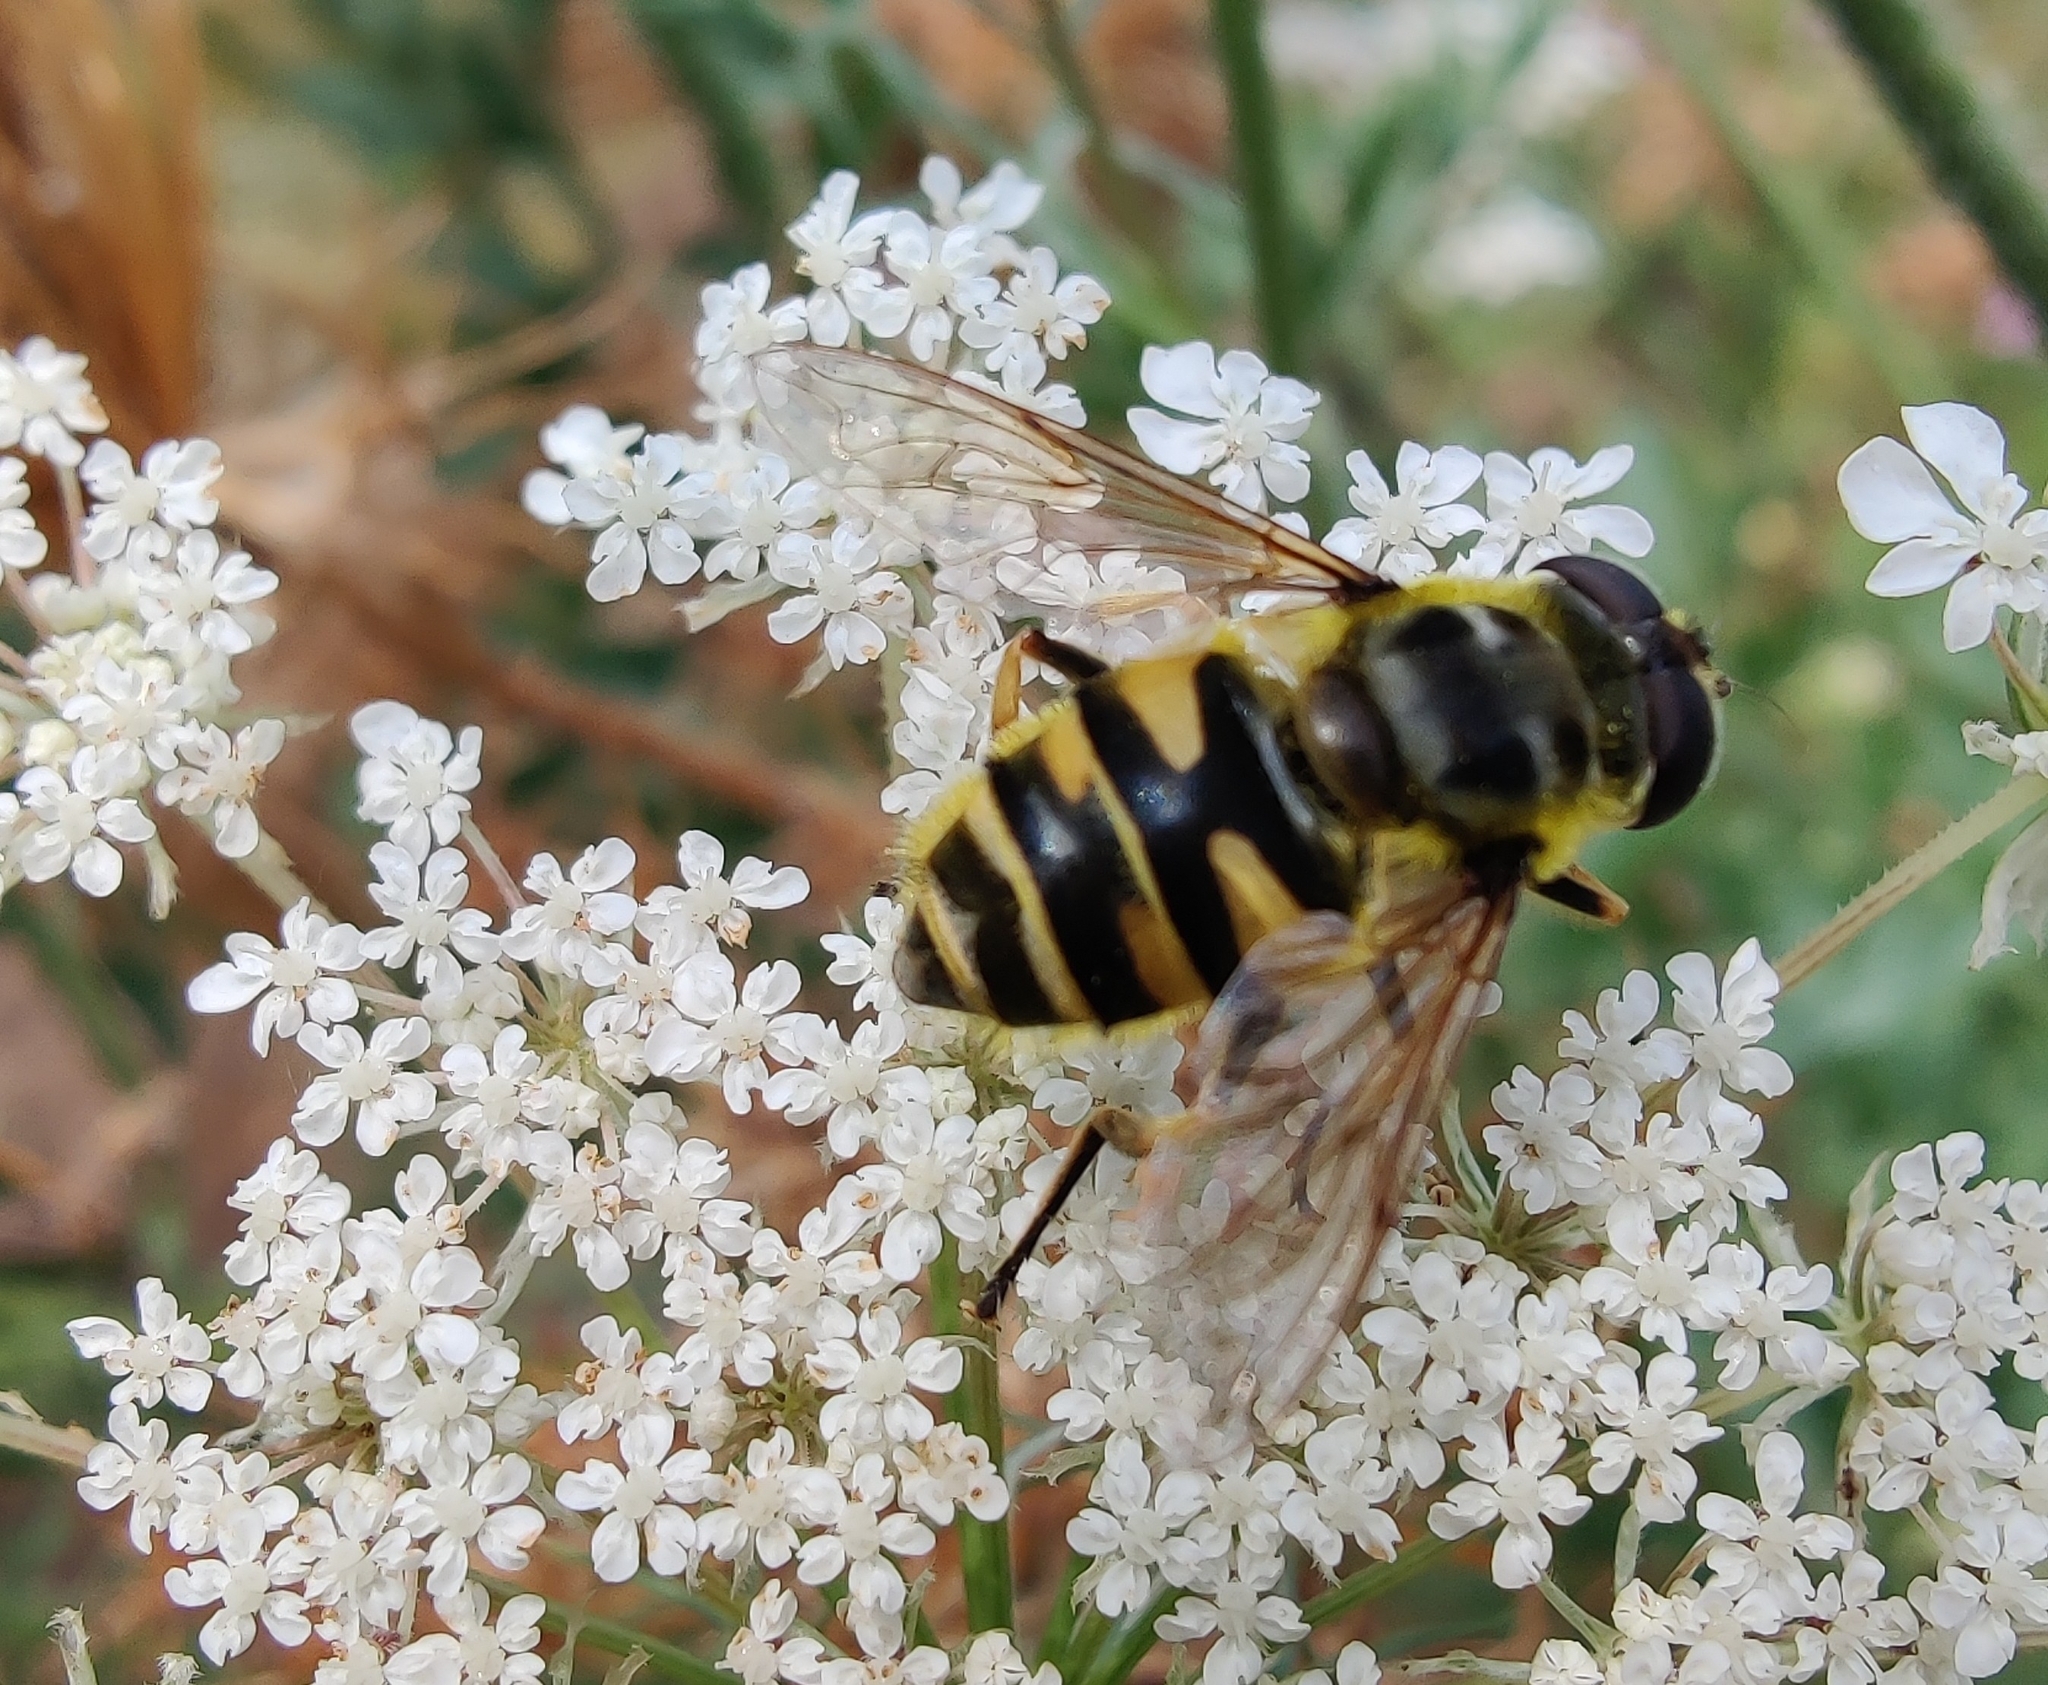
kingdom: Animalia
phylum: Arthropoda
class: Insecta
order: Diptera
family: Syrphidae
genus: Myathropa
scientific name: Myathropa florea
